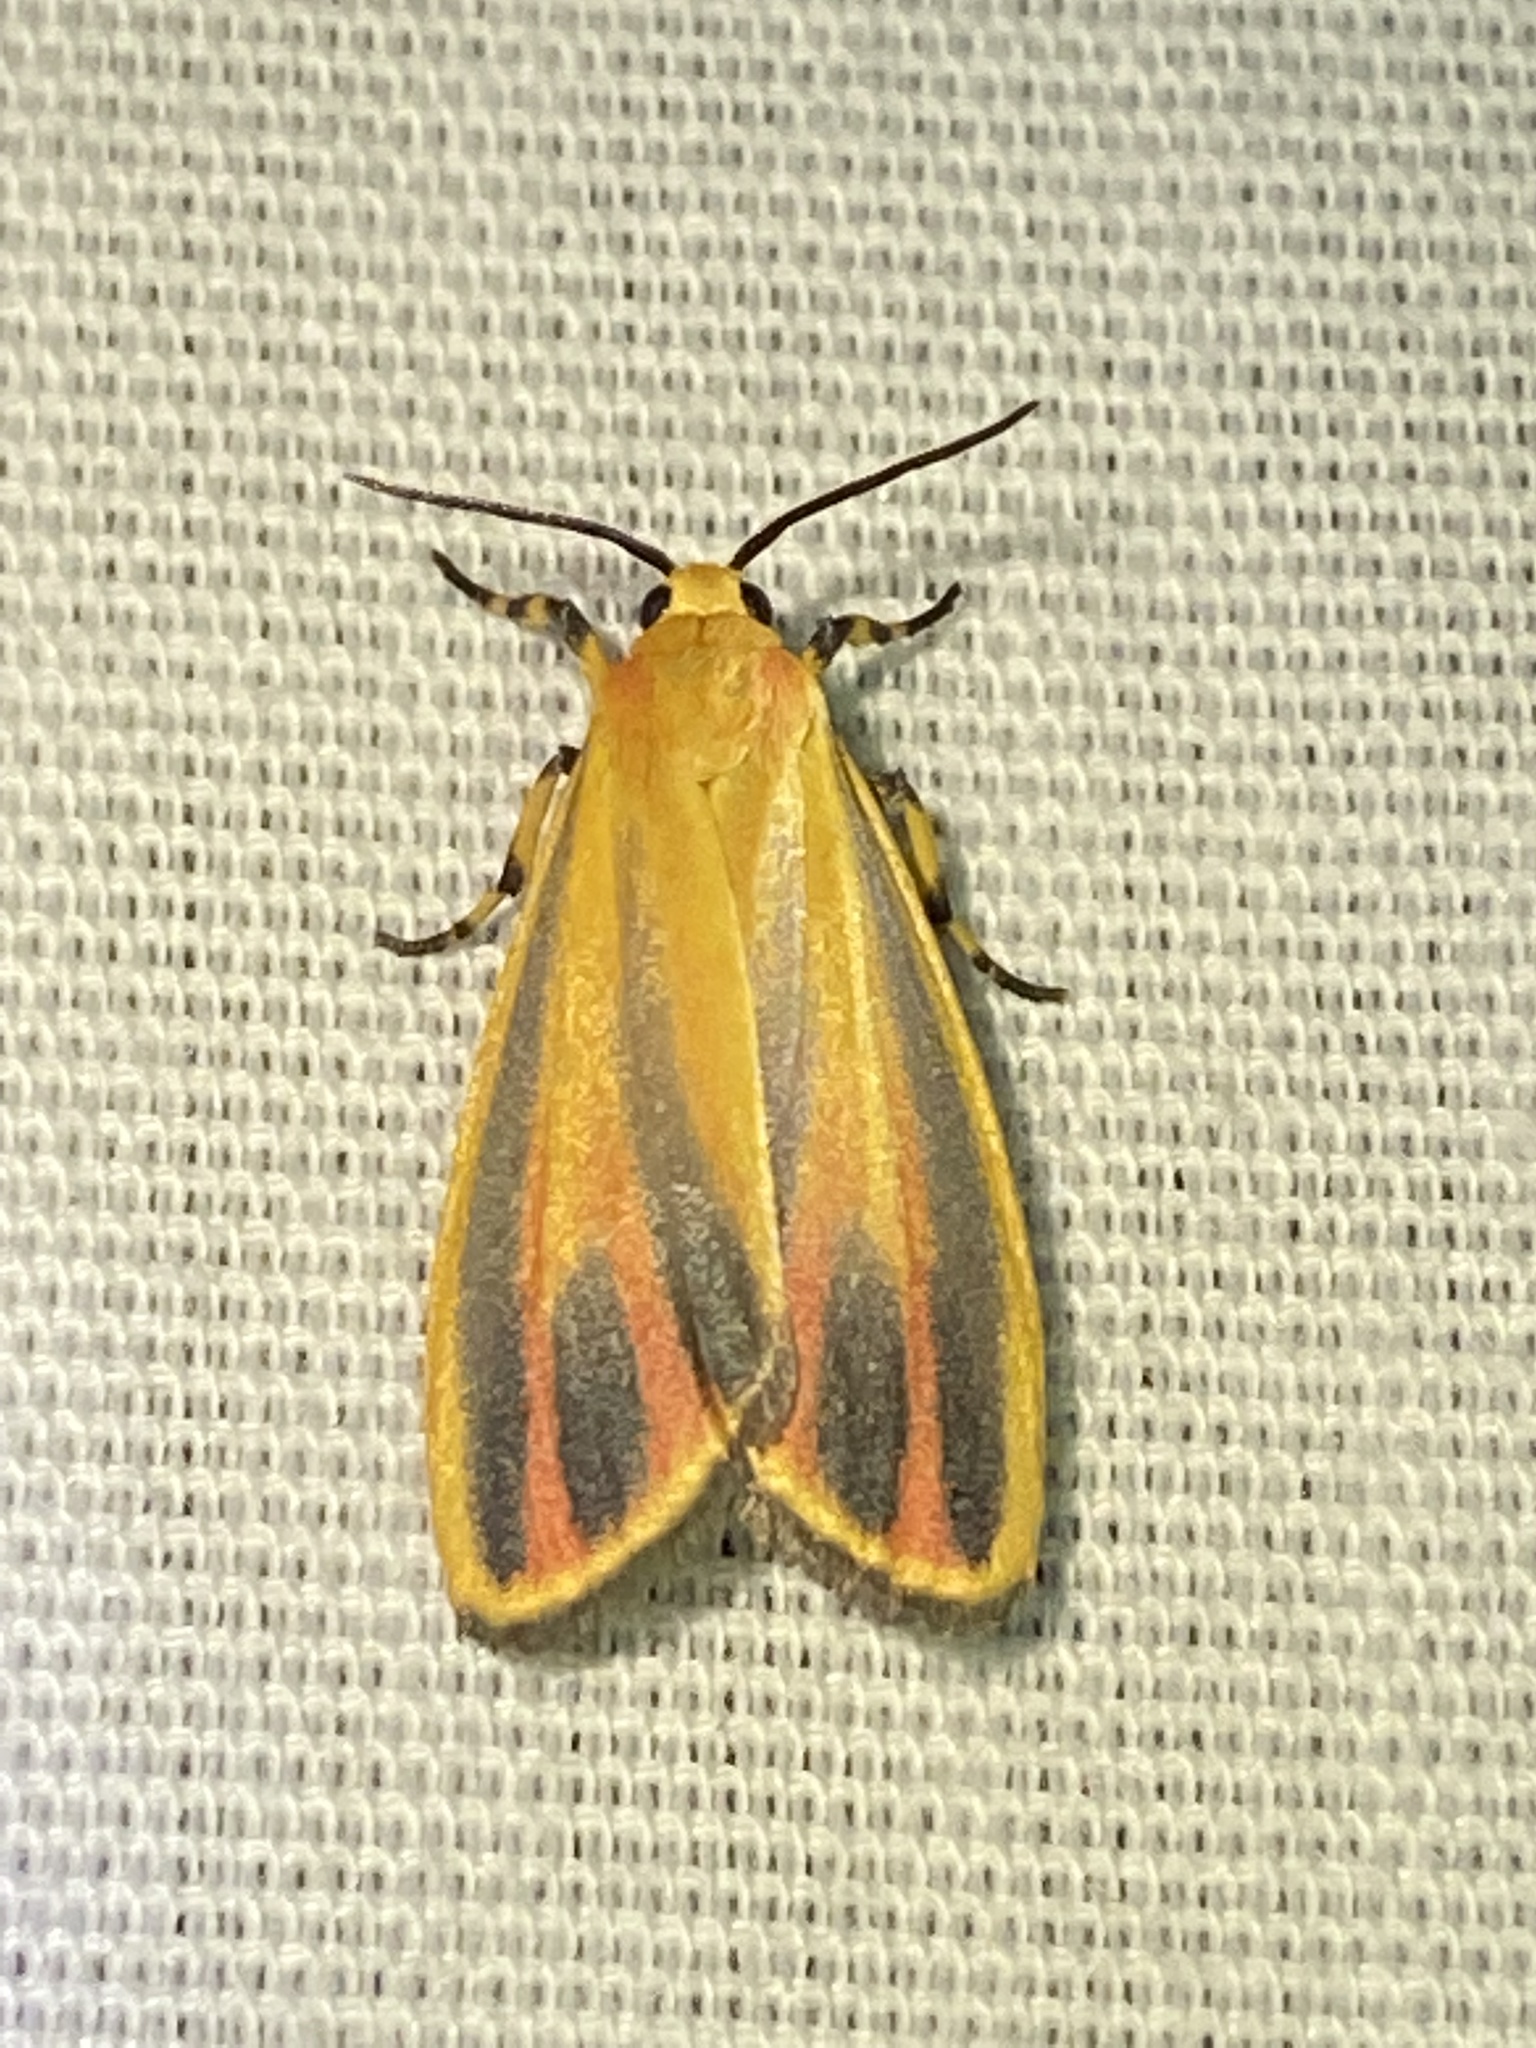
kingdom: Animalia
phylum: Arthropoda
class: Insecta
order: Lepidoptera
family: Erebidae
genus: Hypoprepia
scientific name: Hypoprepia fucosa
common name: Painted lichen moth
